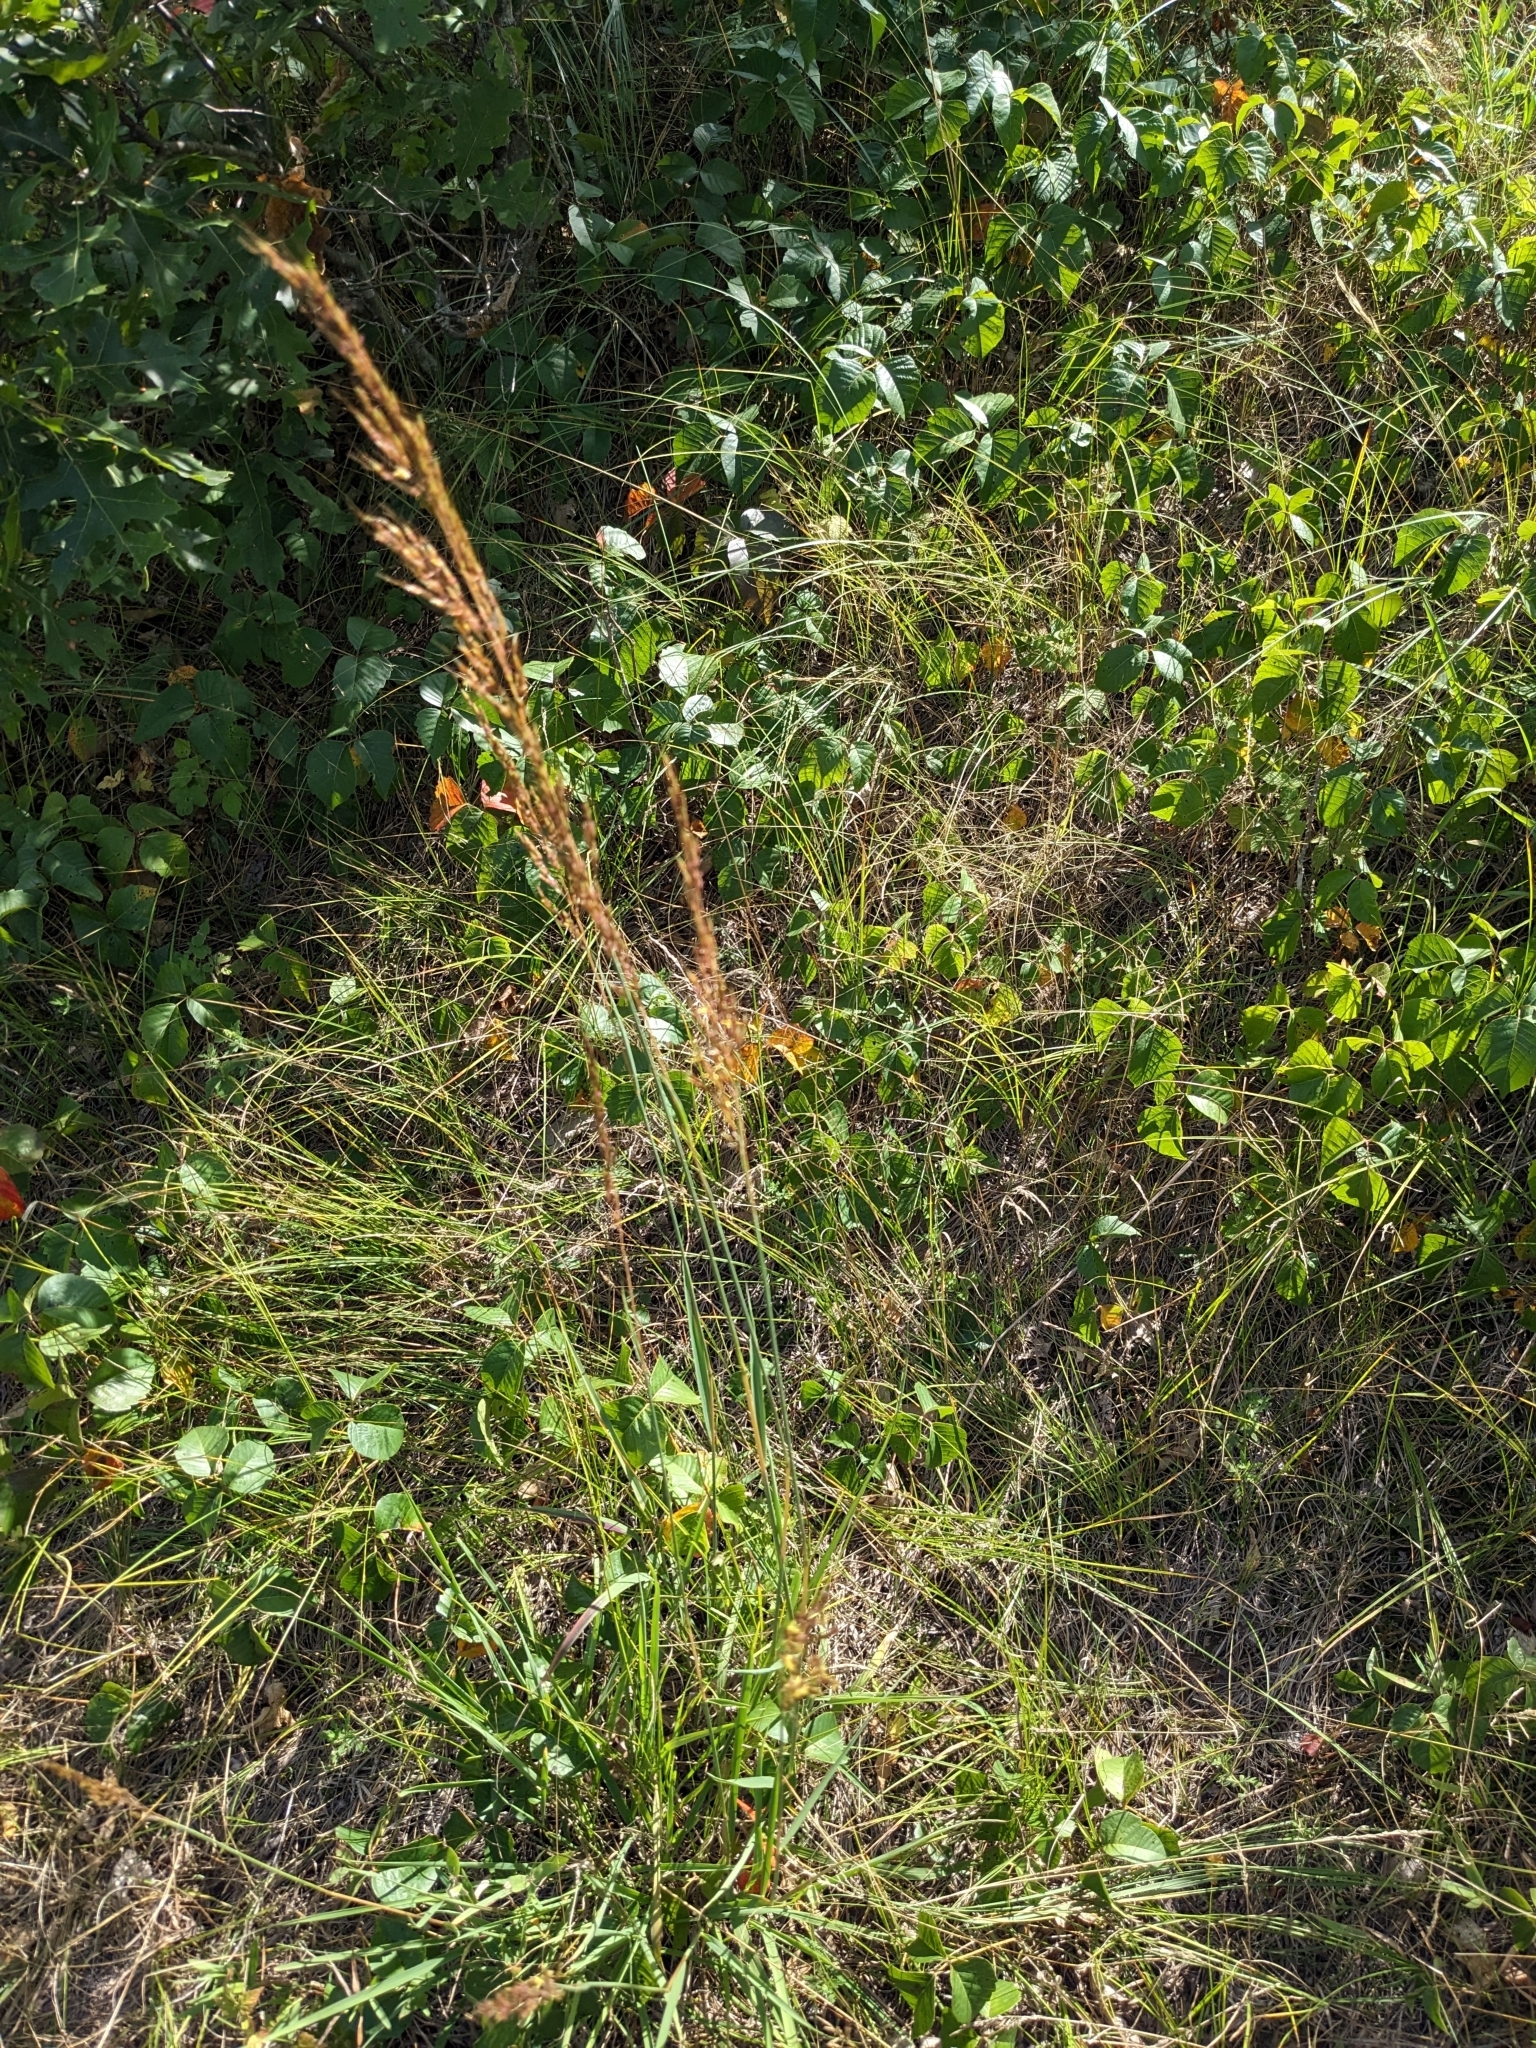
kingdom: Plantae
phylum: Tracheophyta
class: Liliopsida
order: Poales
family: Poaceae
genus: Sorghastrum
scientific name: Sorghastrum nutans
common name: Indian grass
